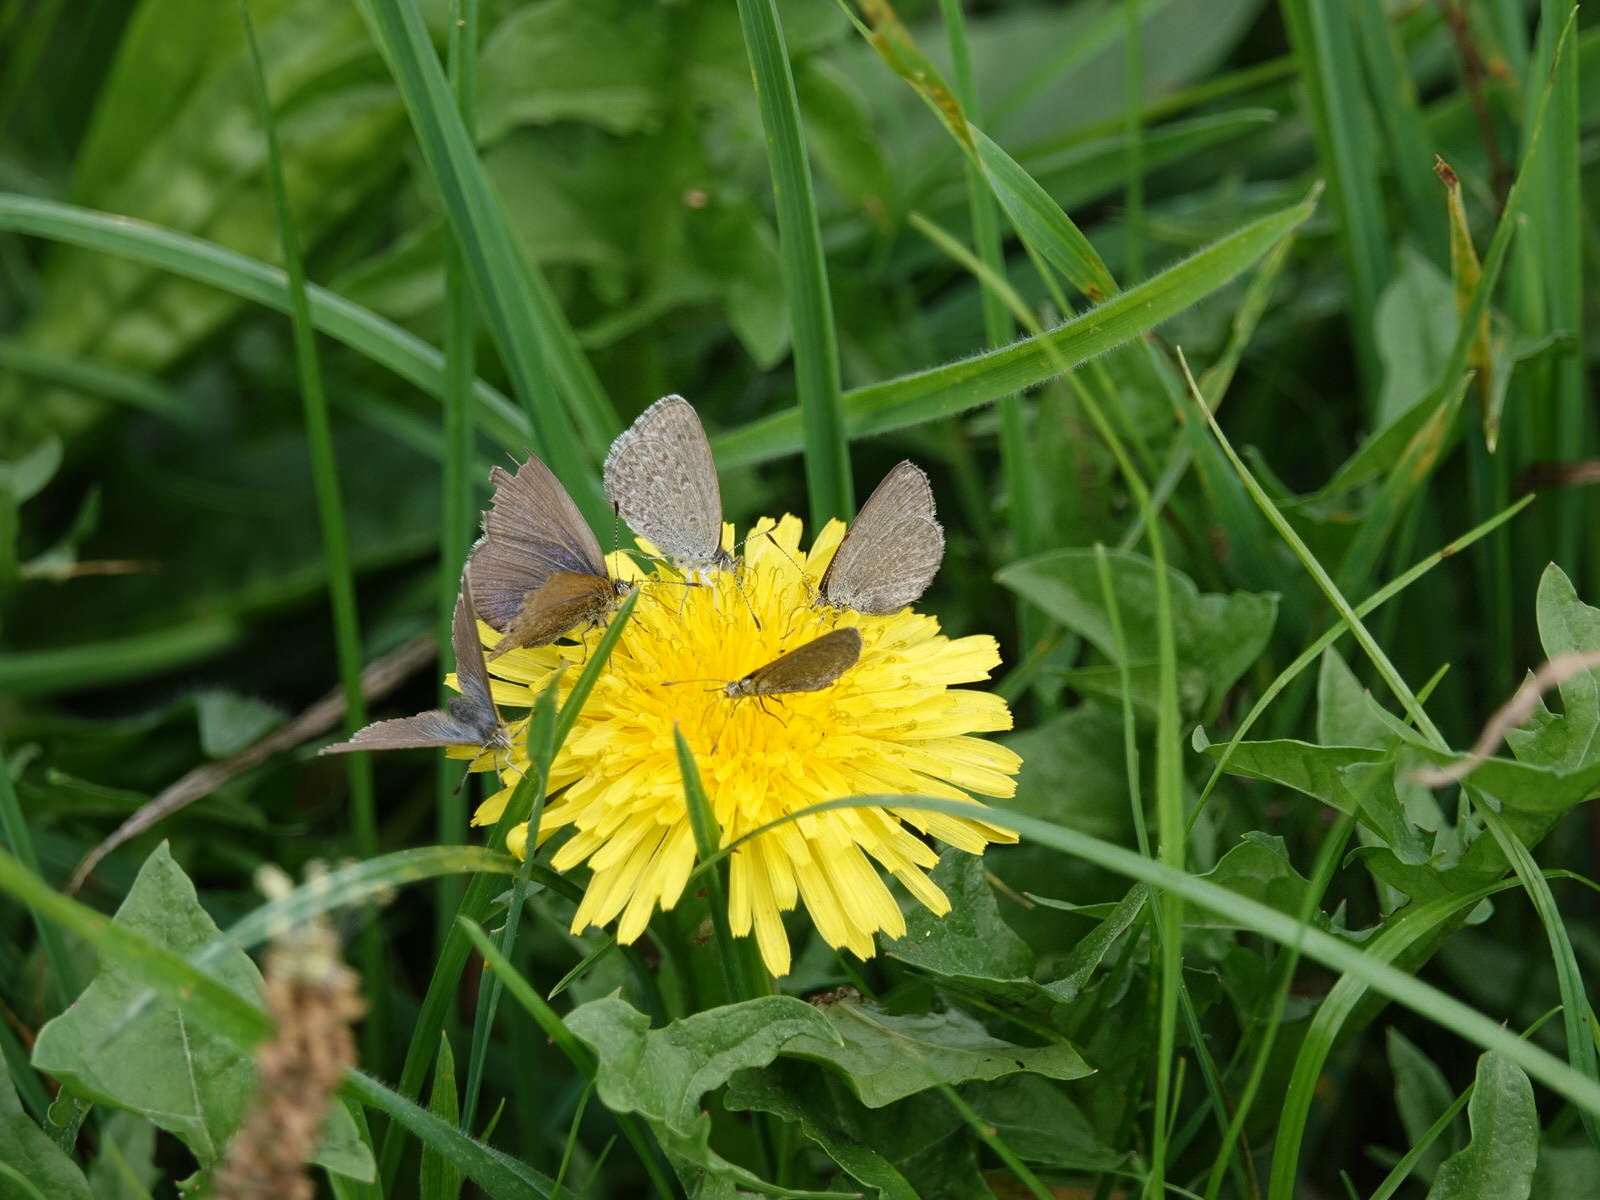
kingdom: Animalia
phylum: Arthropoda
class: Insecta
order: Lepidoptera
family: Lycaenidae
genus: Zizina
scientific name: Zizina labradus
